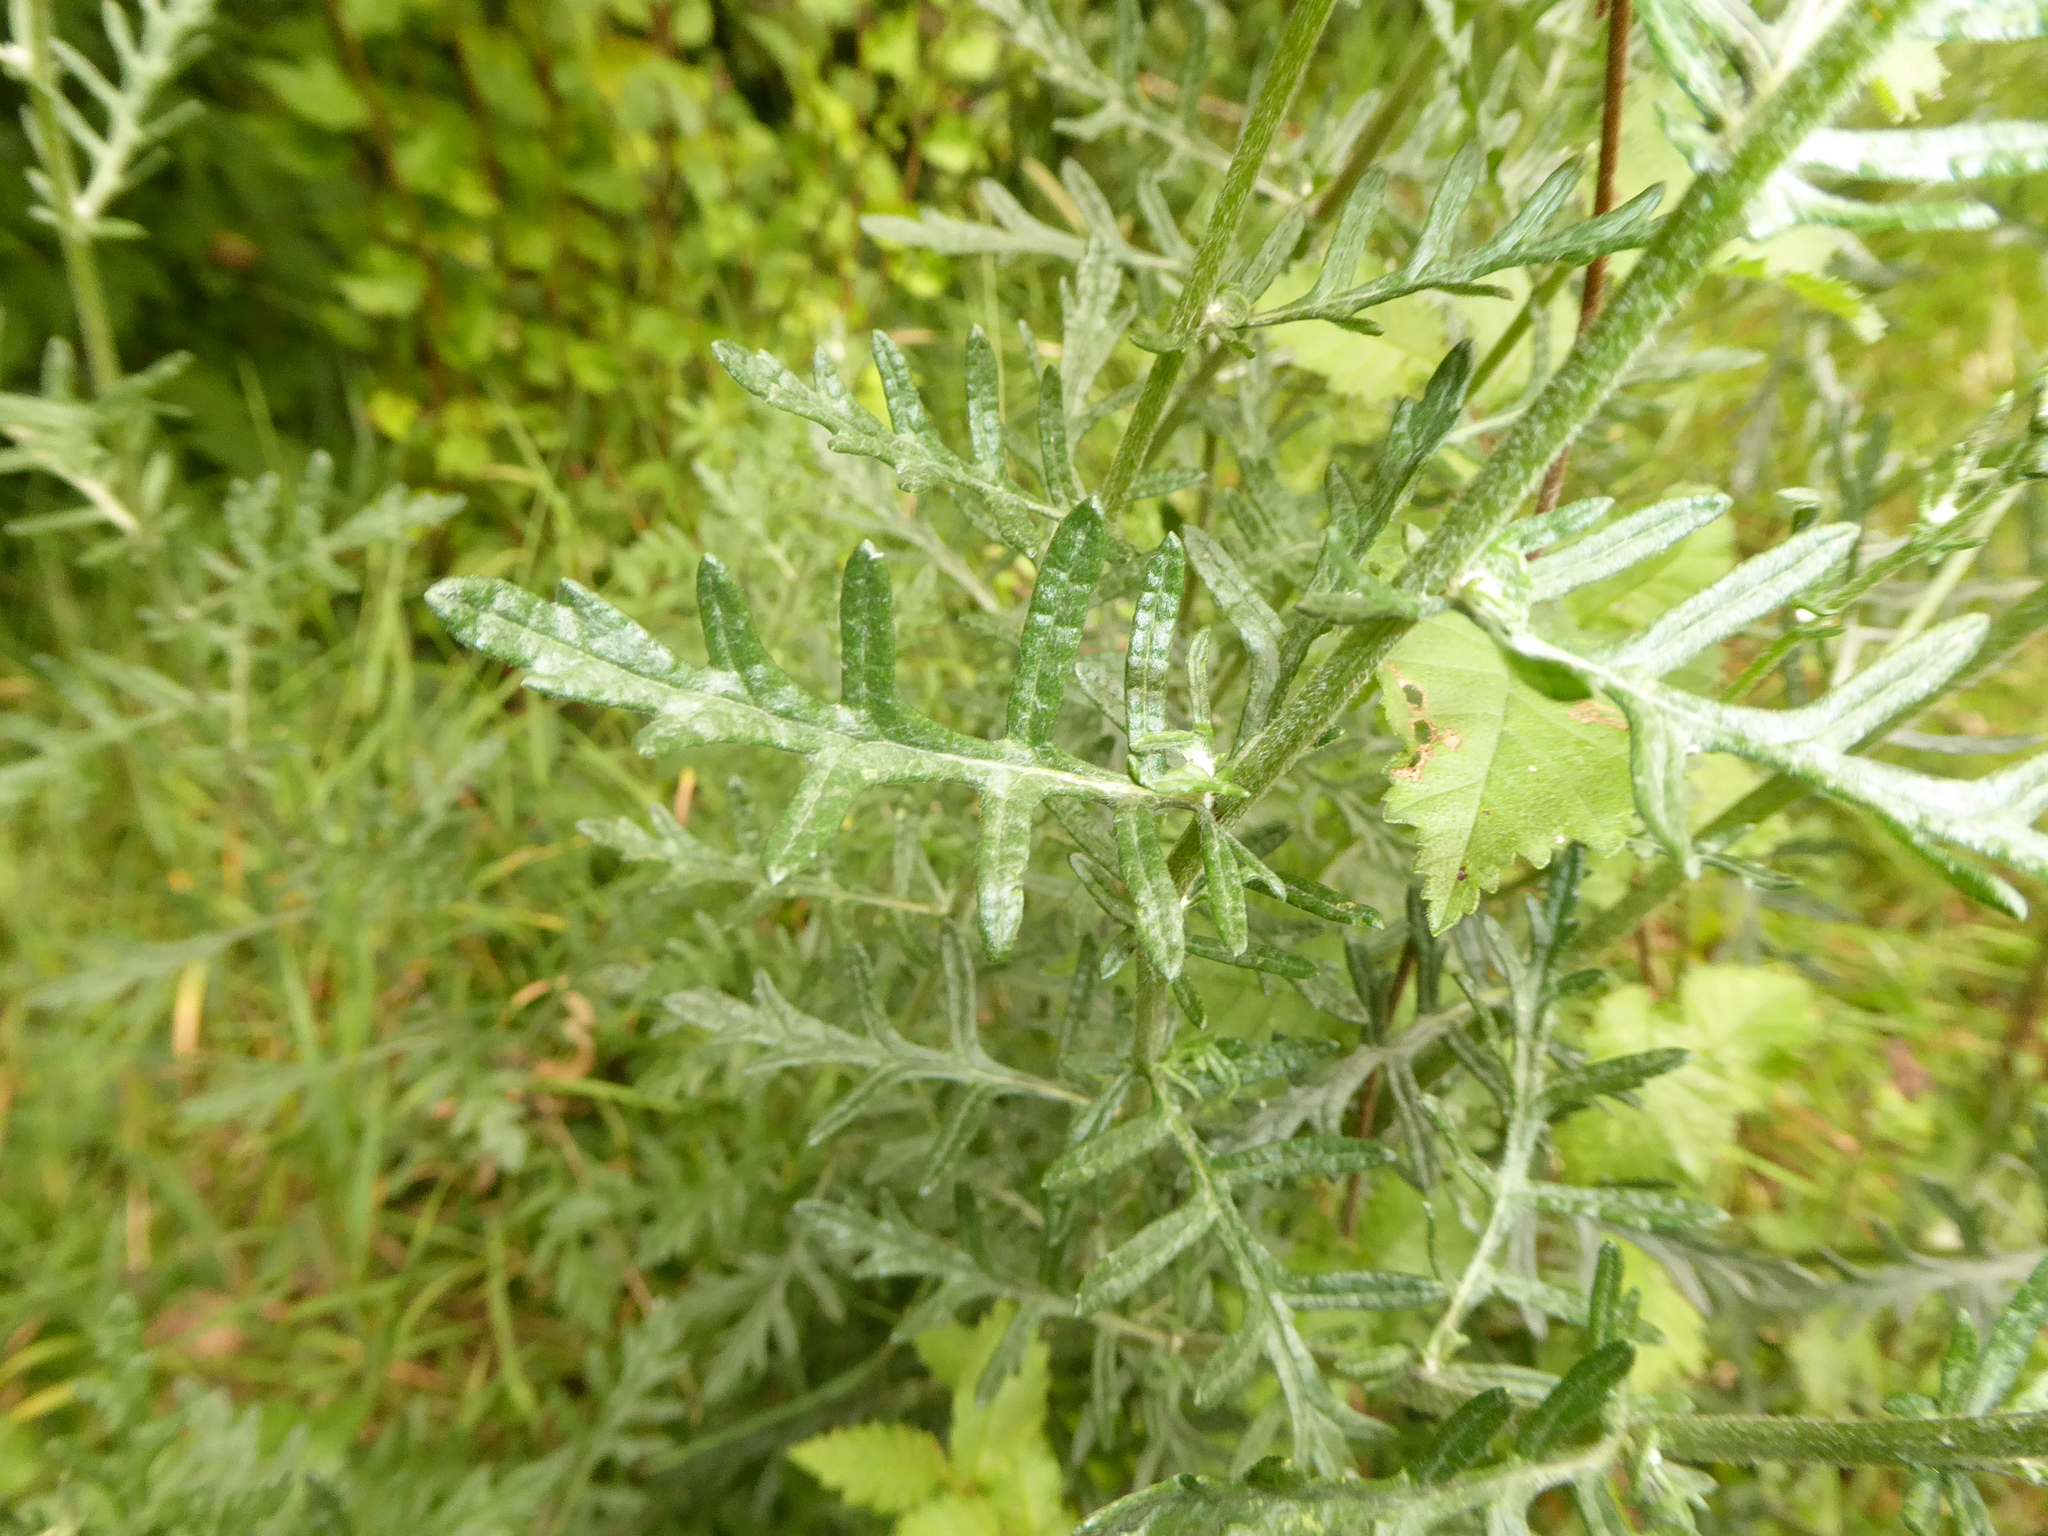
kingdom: Plantae
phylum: Tracheophyta
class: Magnoliopsida
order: Asterales
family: Asteraceae
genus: Jacobaea
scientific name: Jacobaea erucifolia
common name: Hoary ragwort
